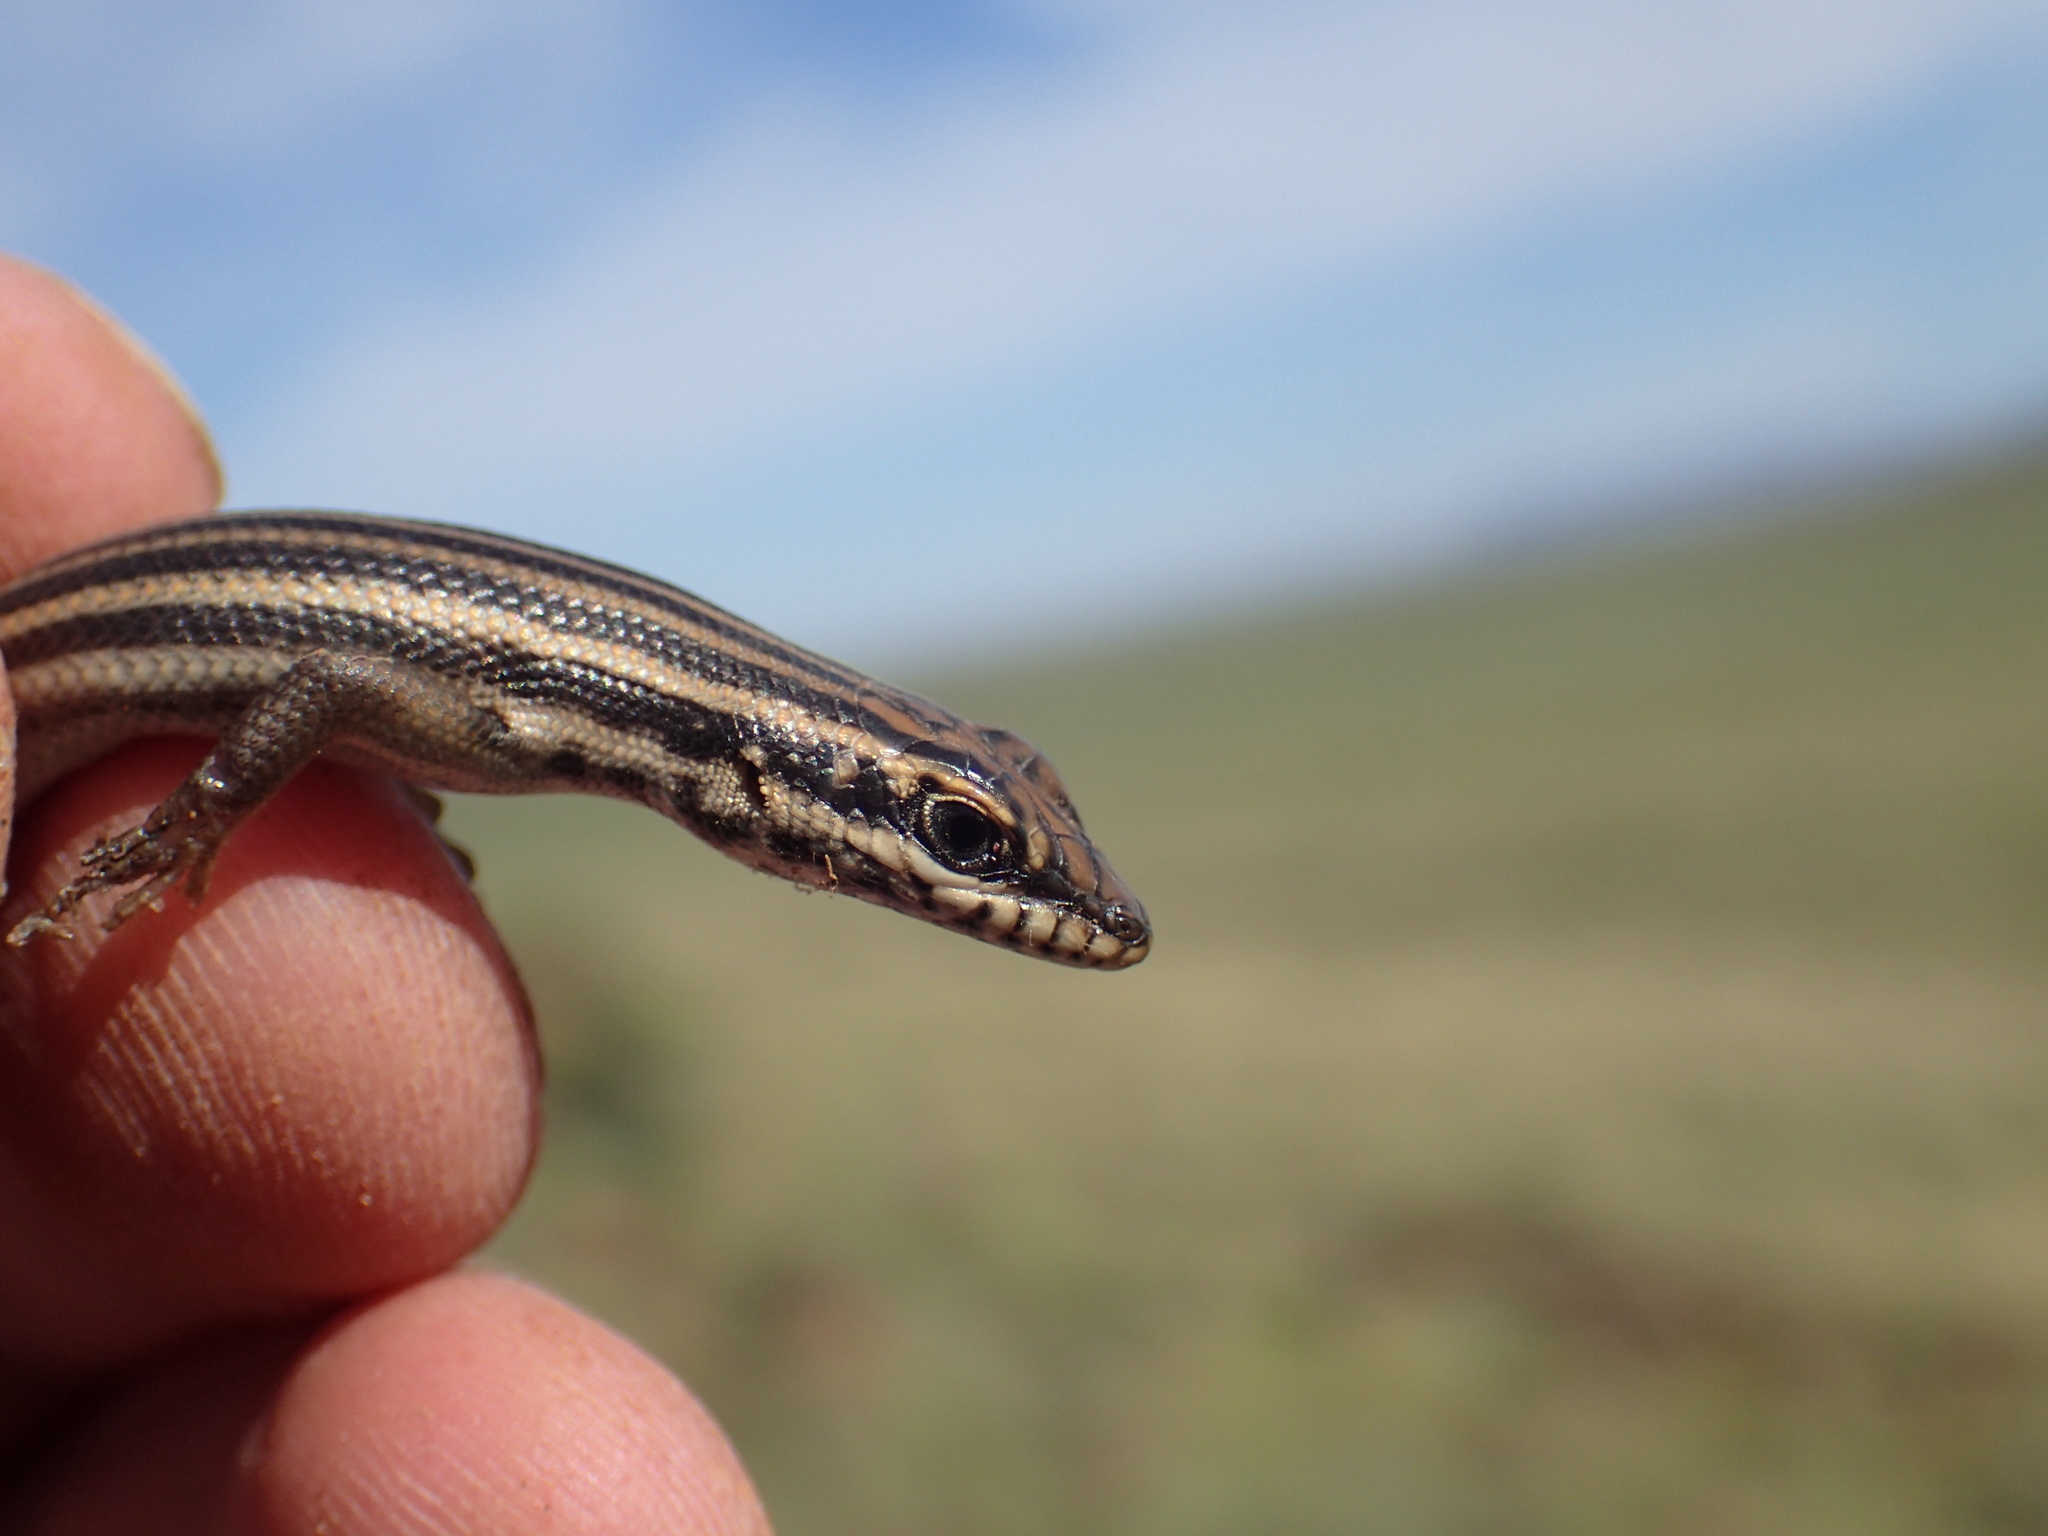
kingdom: Animalia
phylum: Chordata
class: Squamata
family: Scincidae
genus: Trachylepis
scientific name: Trachylepis sulcata
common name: Western rock skink
